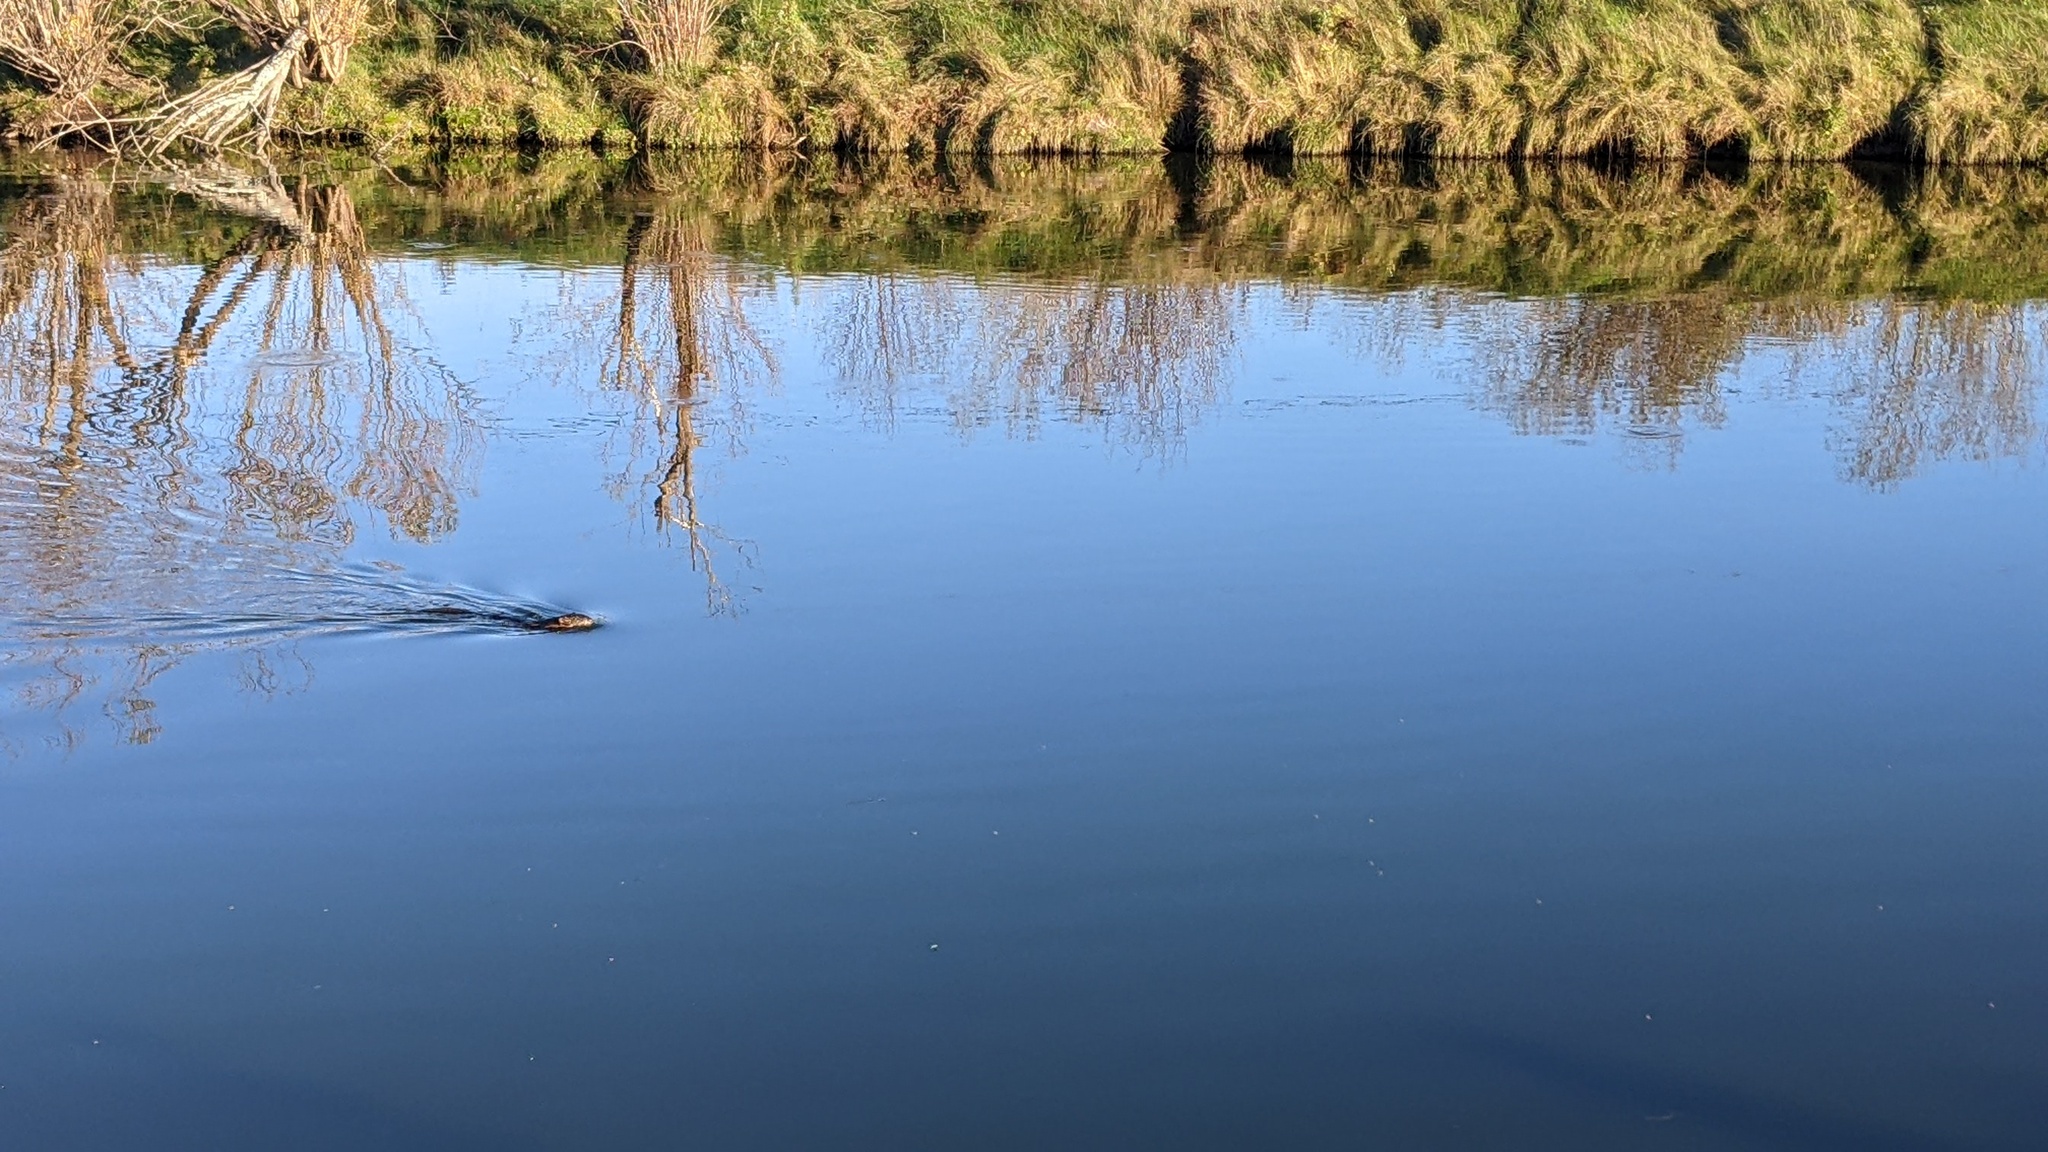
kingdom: Animalia
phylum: Chordata
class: Mammalia
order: Rodentia
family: Cricetidae
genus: Ondatra
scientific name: Ondatra zibethicus
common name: Muskrat
